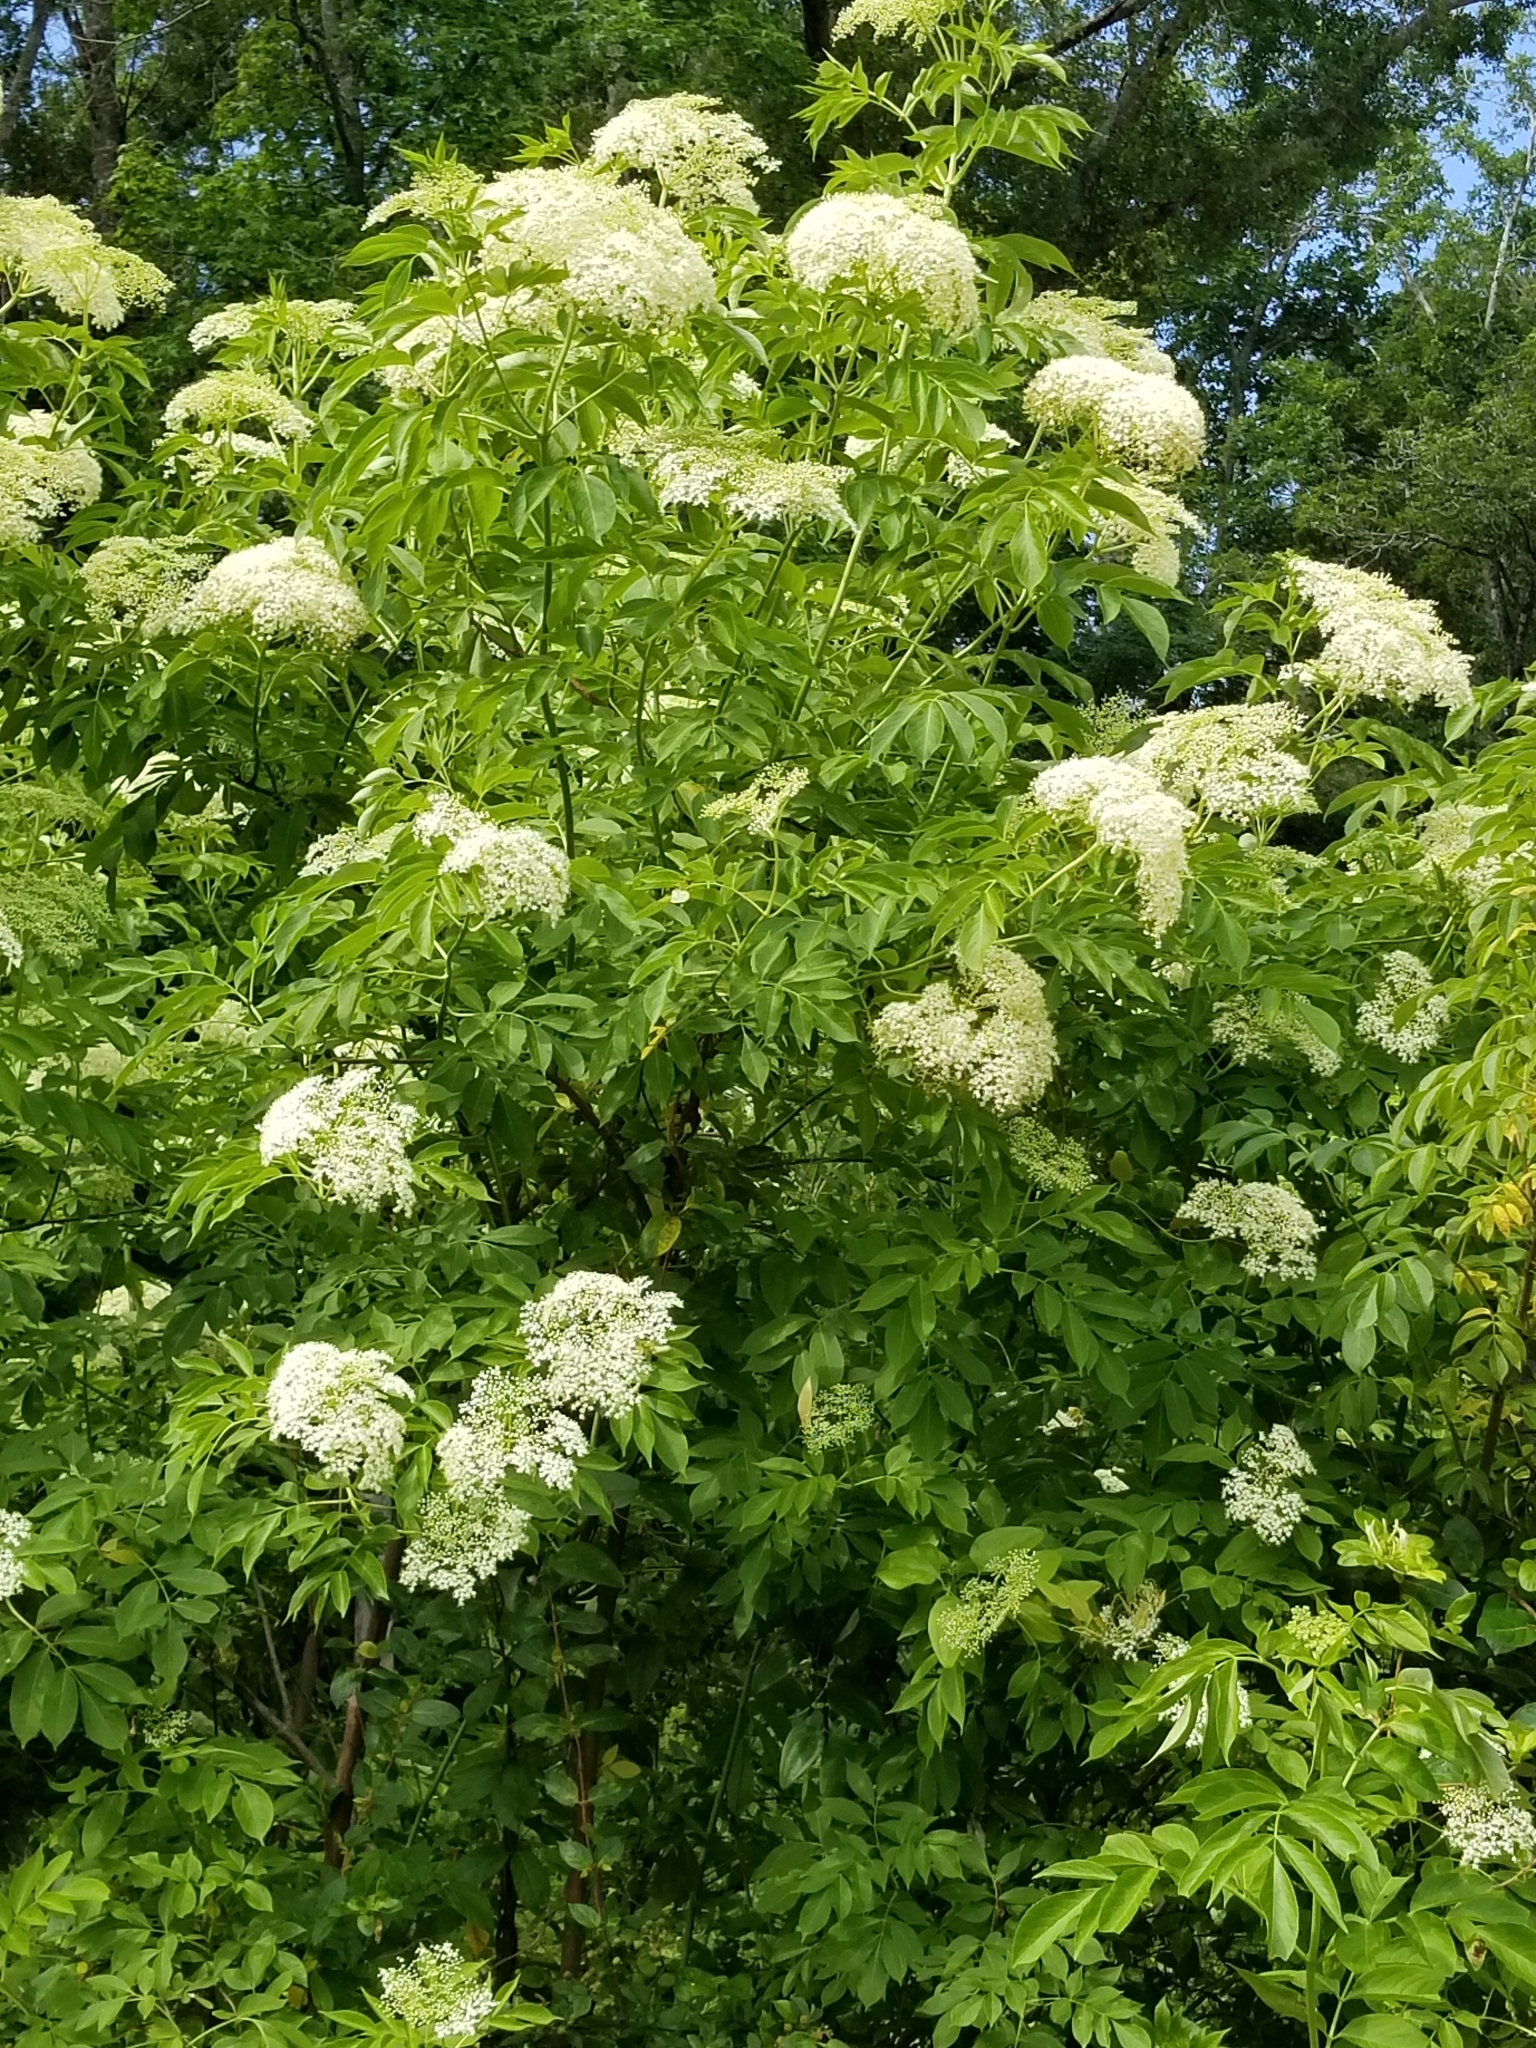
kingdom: Plantae
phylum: Tracheophyta
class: Magnoliopsida
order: Dipsacales
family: Viburnaceae
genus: Sambucus
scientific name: Sambucus canadensis
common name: American elder
